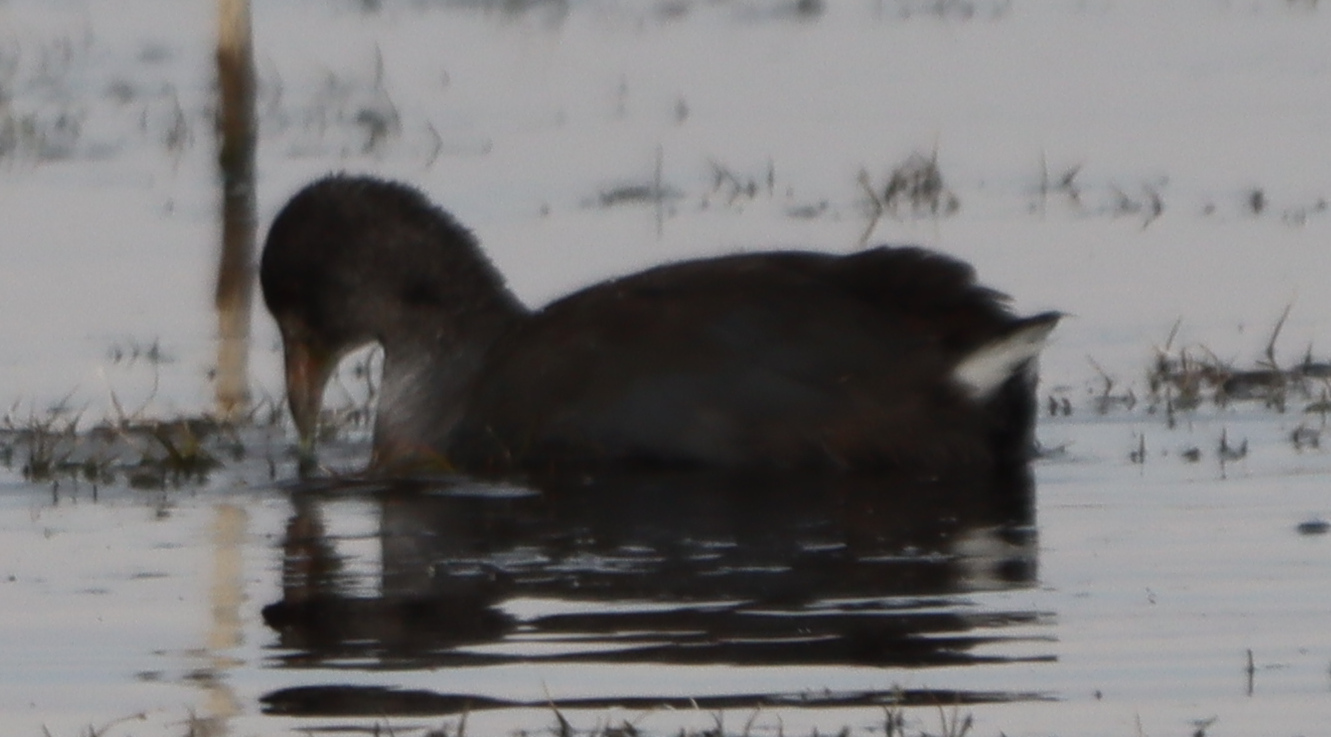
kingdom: Animalia
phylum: Chordata
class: Aves
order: Gruiformes
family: Rallidae
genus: Fulica
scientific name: Fulica americana
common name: American coot
